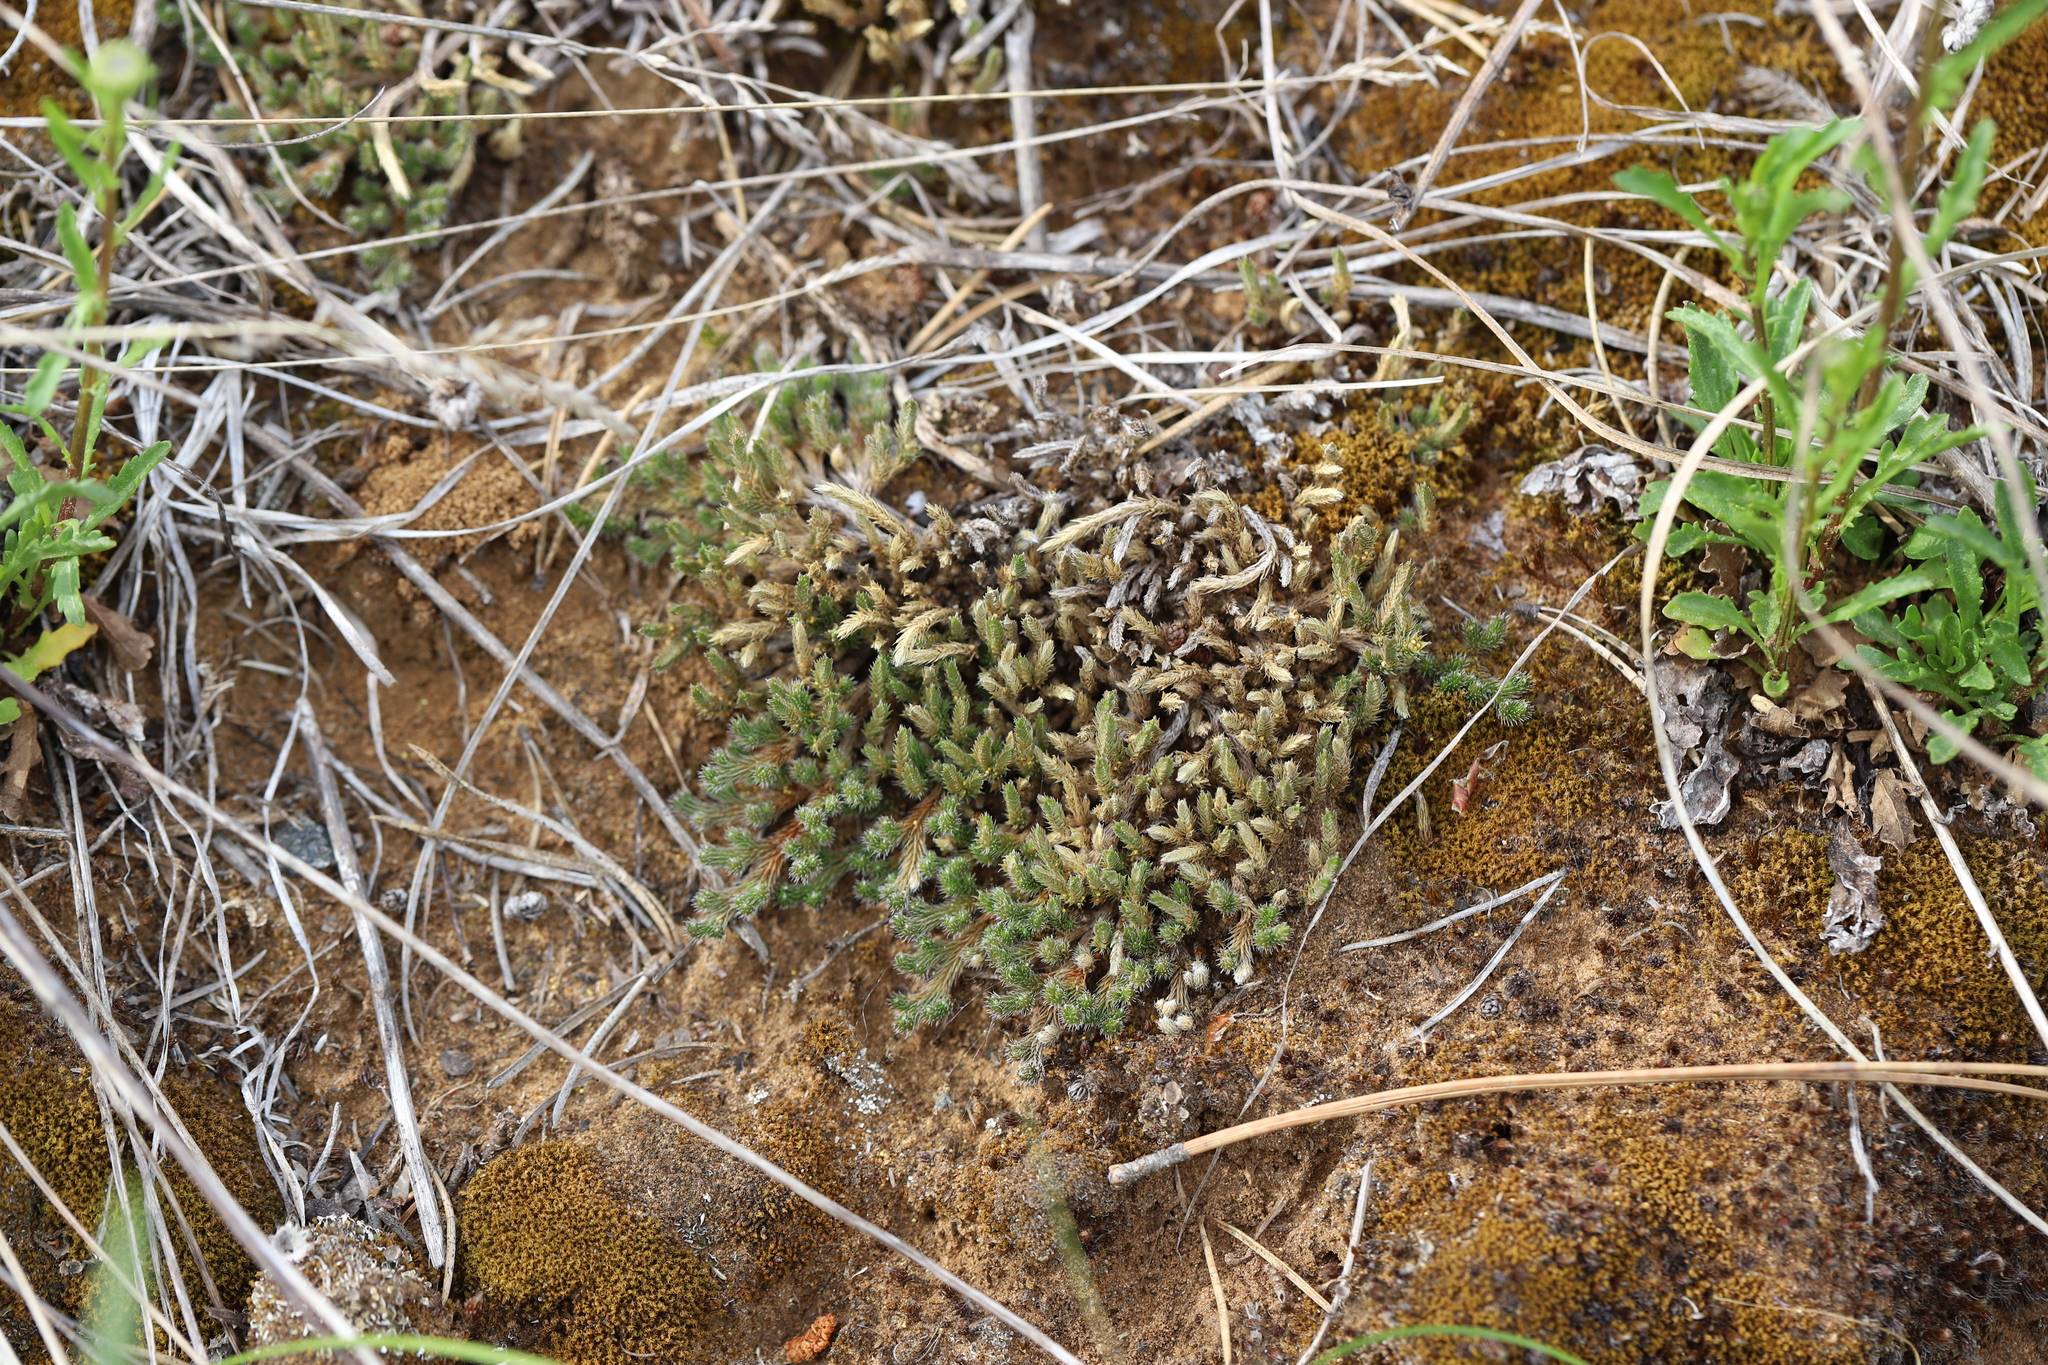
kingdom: Plantae
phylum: Tracheophyta
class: Lycopodiopsida
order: Selaginellales
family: Selaginellaceae
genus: Selaginella
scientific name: Selaginella rupestris
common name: Dwarf spikemoss
